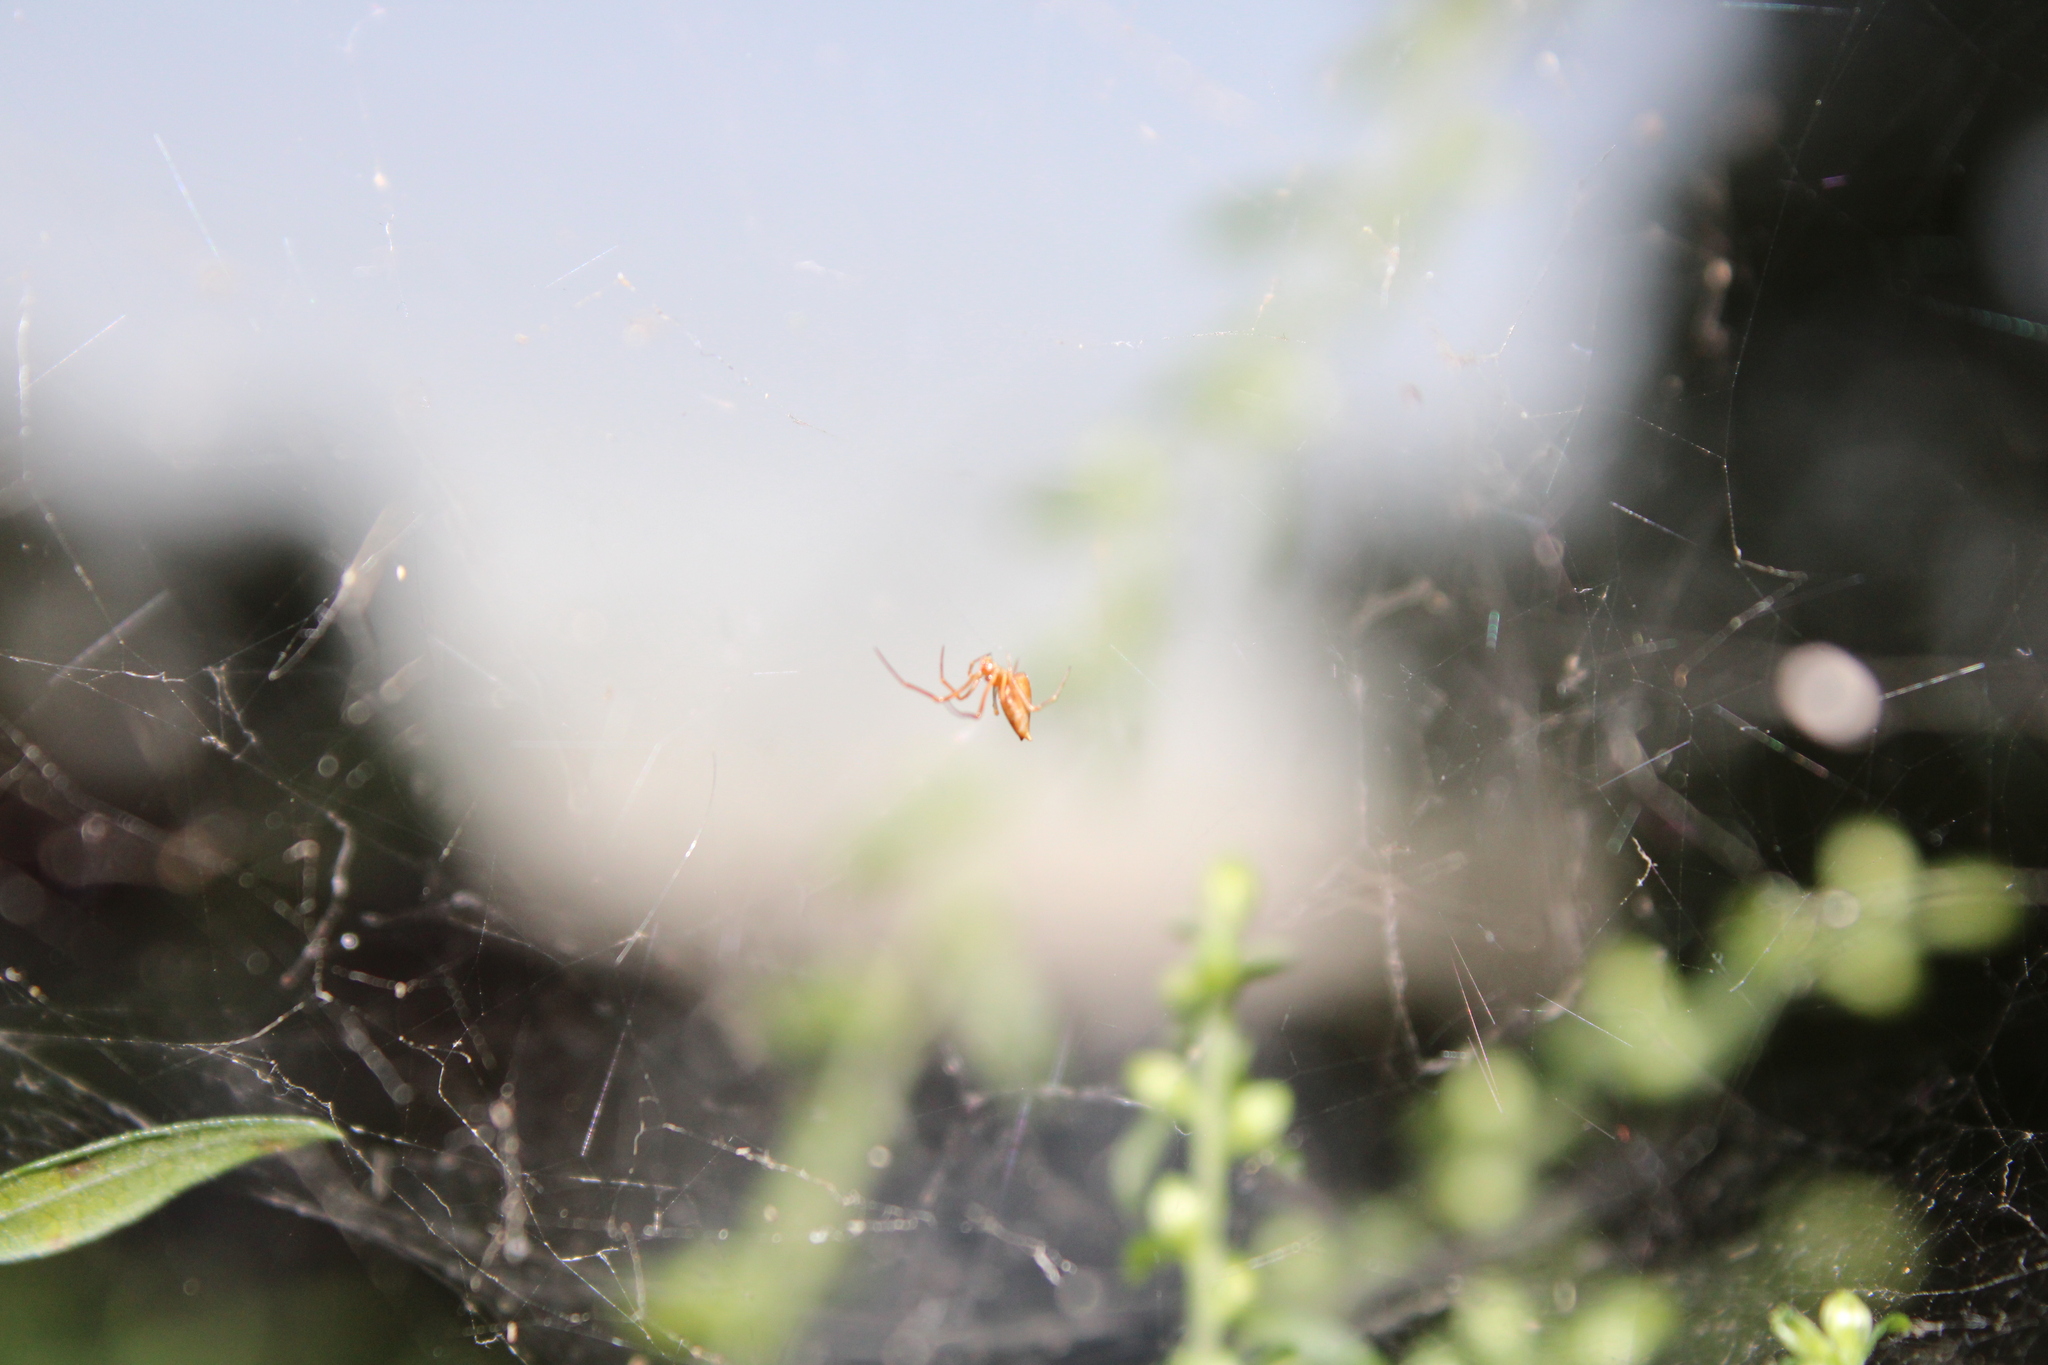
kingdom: Animalia
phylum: Arthropoda
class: Arachnida
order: Araneae
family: Theridiidae
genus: Neospintharus
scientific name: Neospintharus trigonum
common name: Horned parasitic cobweaver
